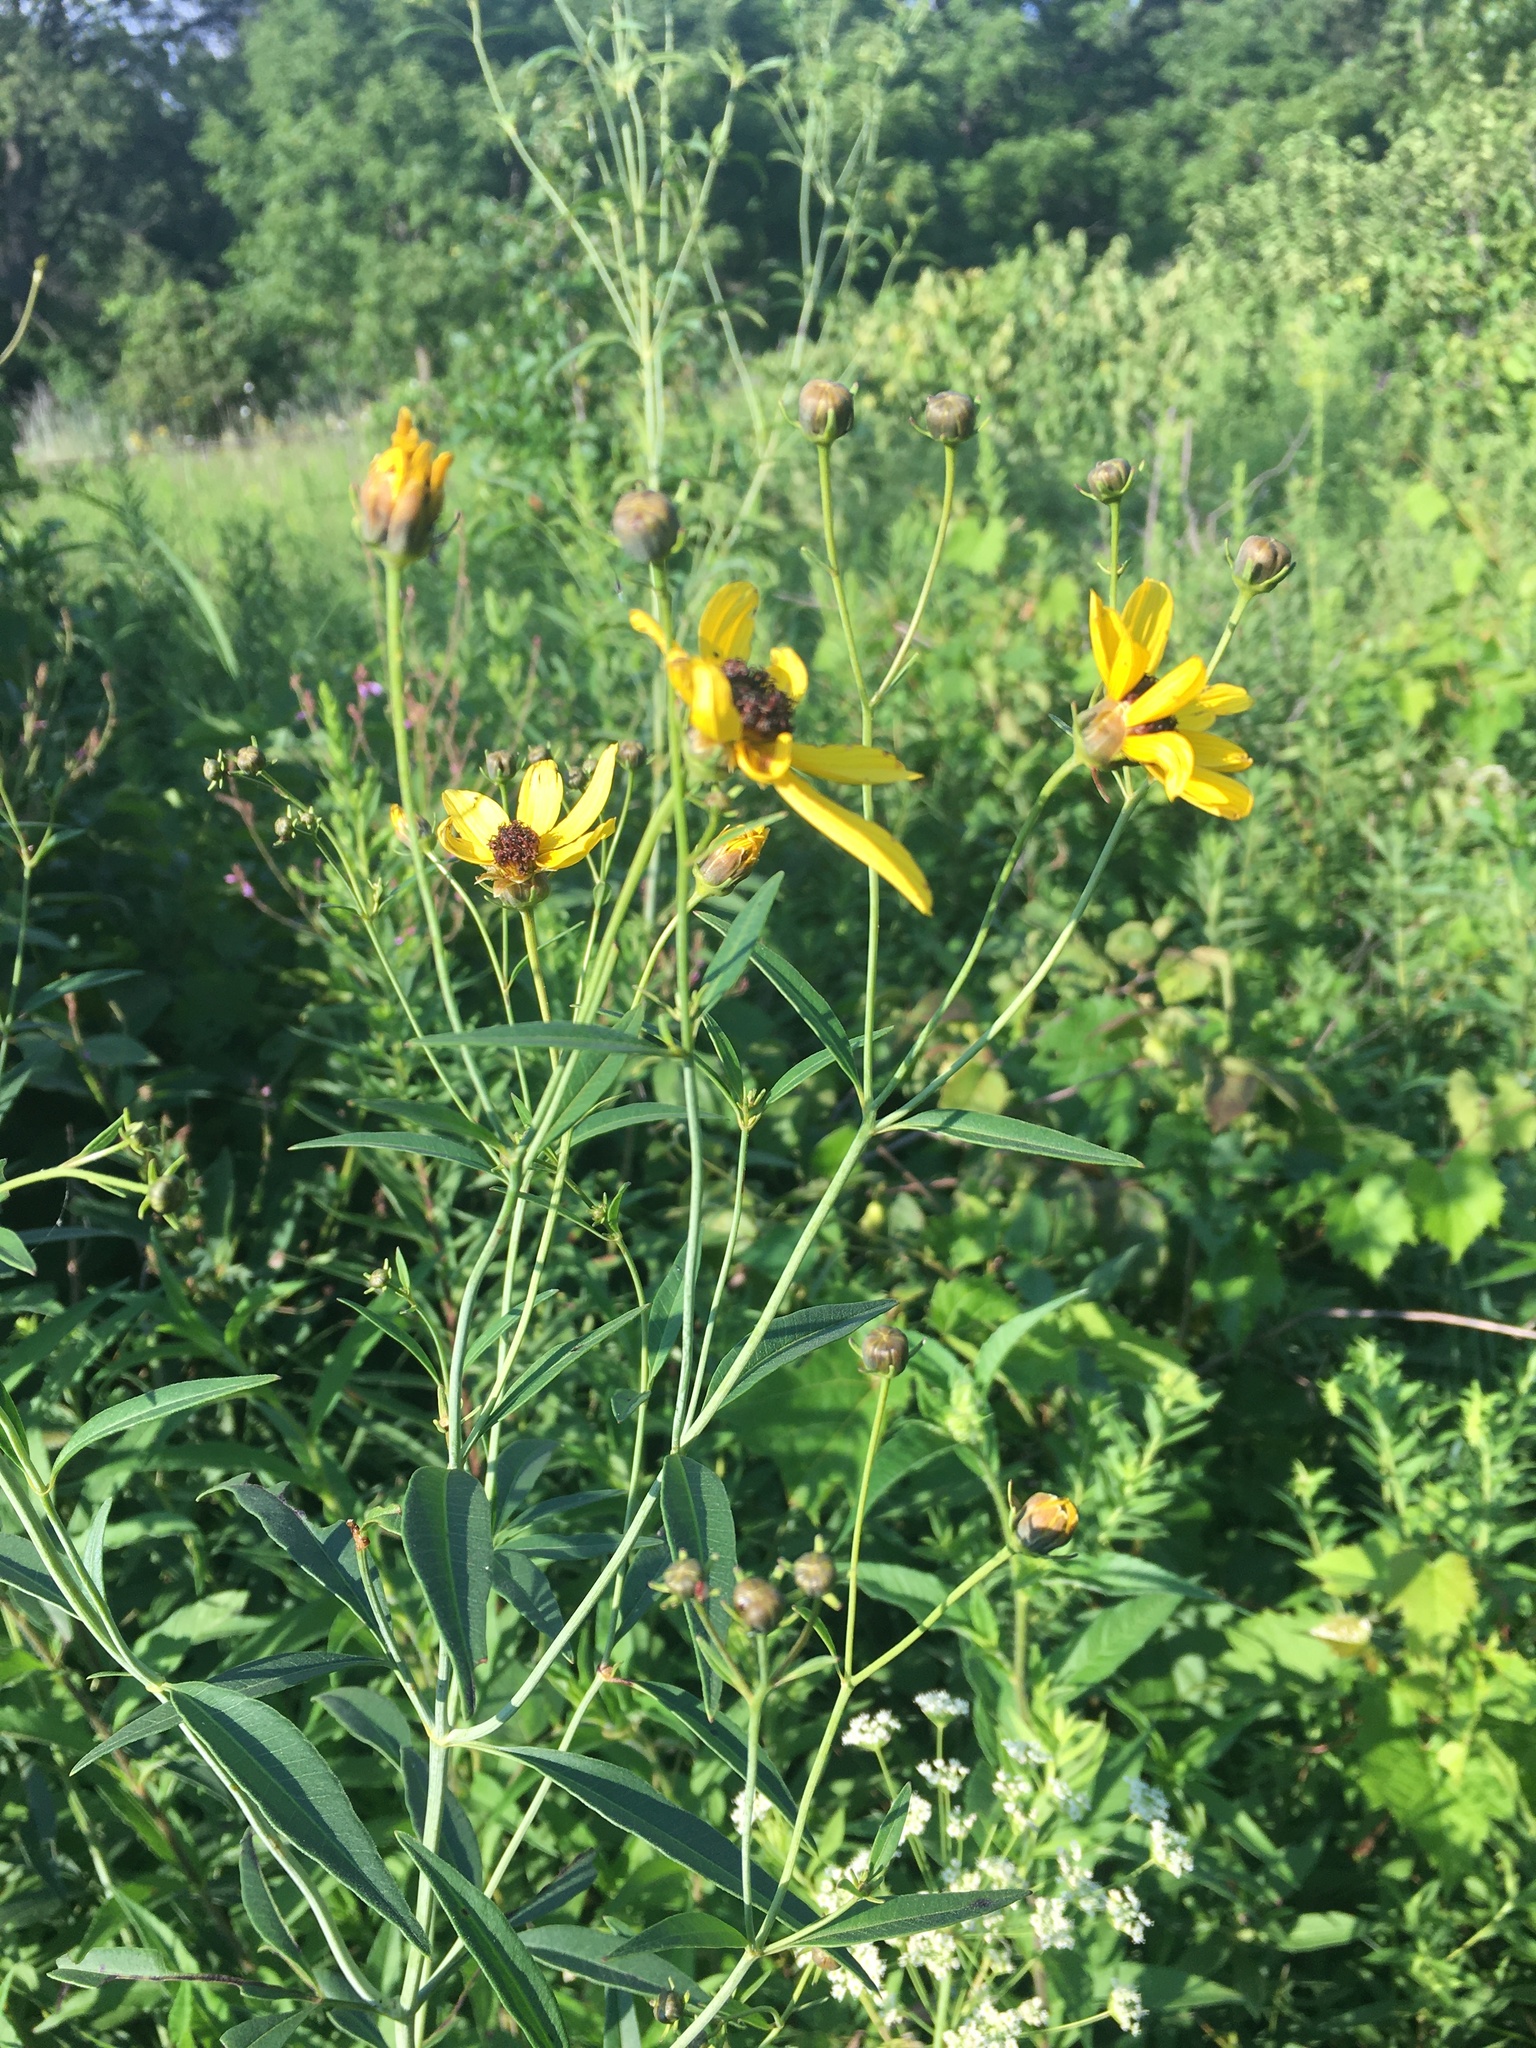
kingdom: Plantae
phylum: Tracheophyta
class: Magnoliopsida
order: Asterales
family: Asteraceae
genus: Coreopsis
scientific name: Coreopsis tripteris
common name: Tall coreopsis
